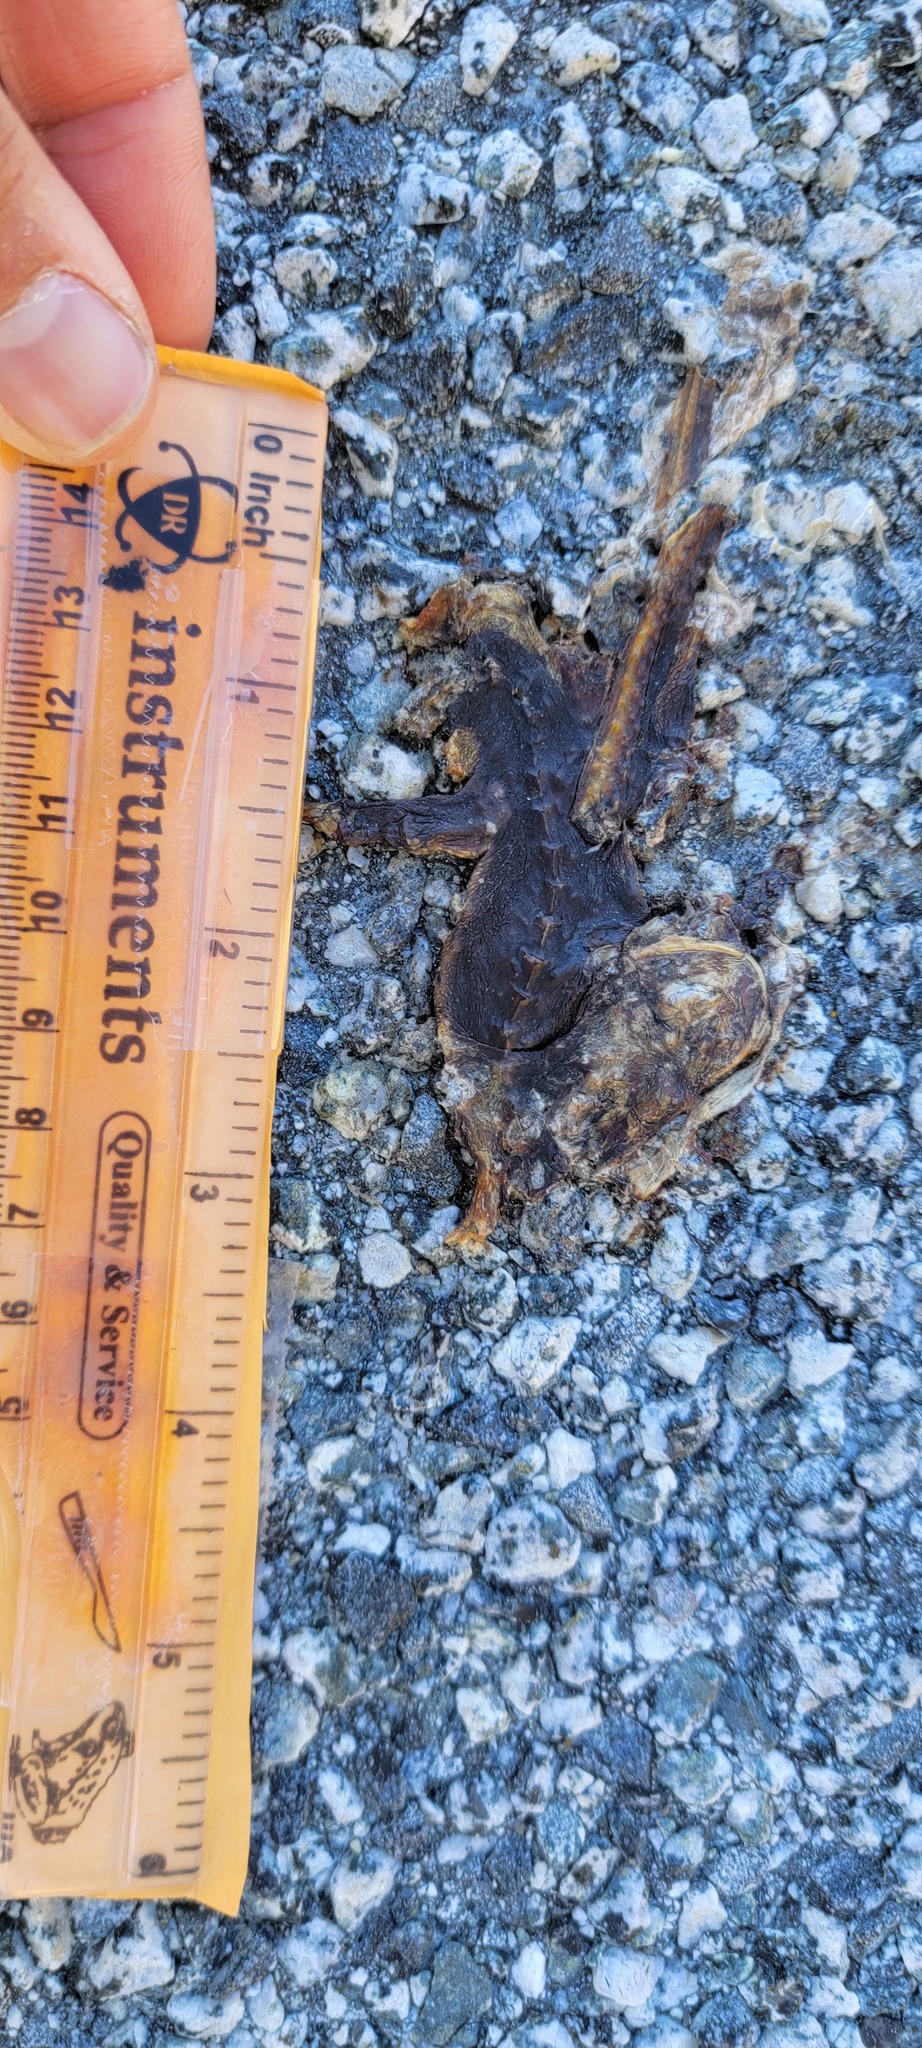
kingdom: Animalia
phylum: Chordata
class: Amphibia
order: Caudata
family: Salamandridae
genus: Taricha
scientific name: Taricha
